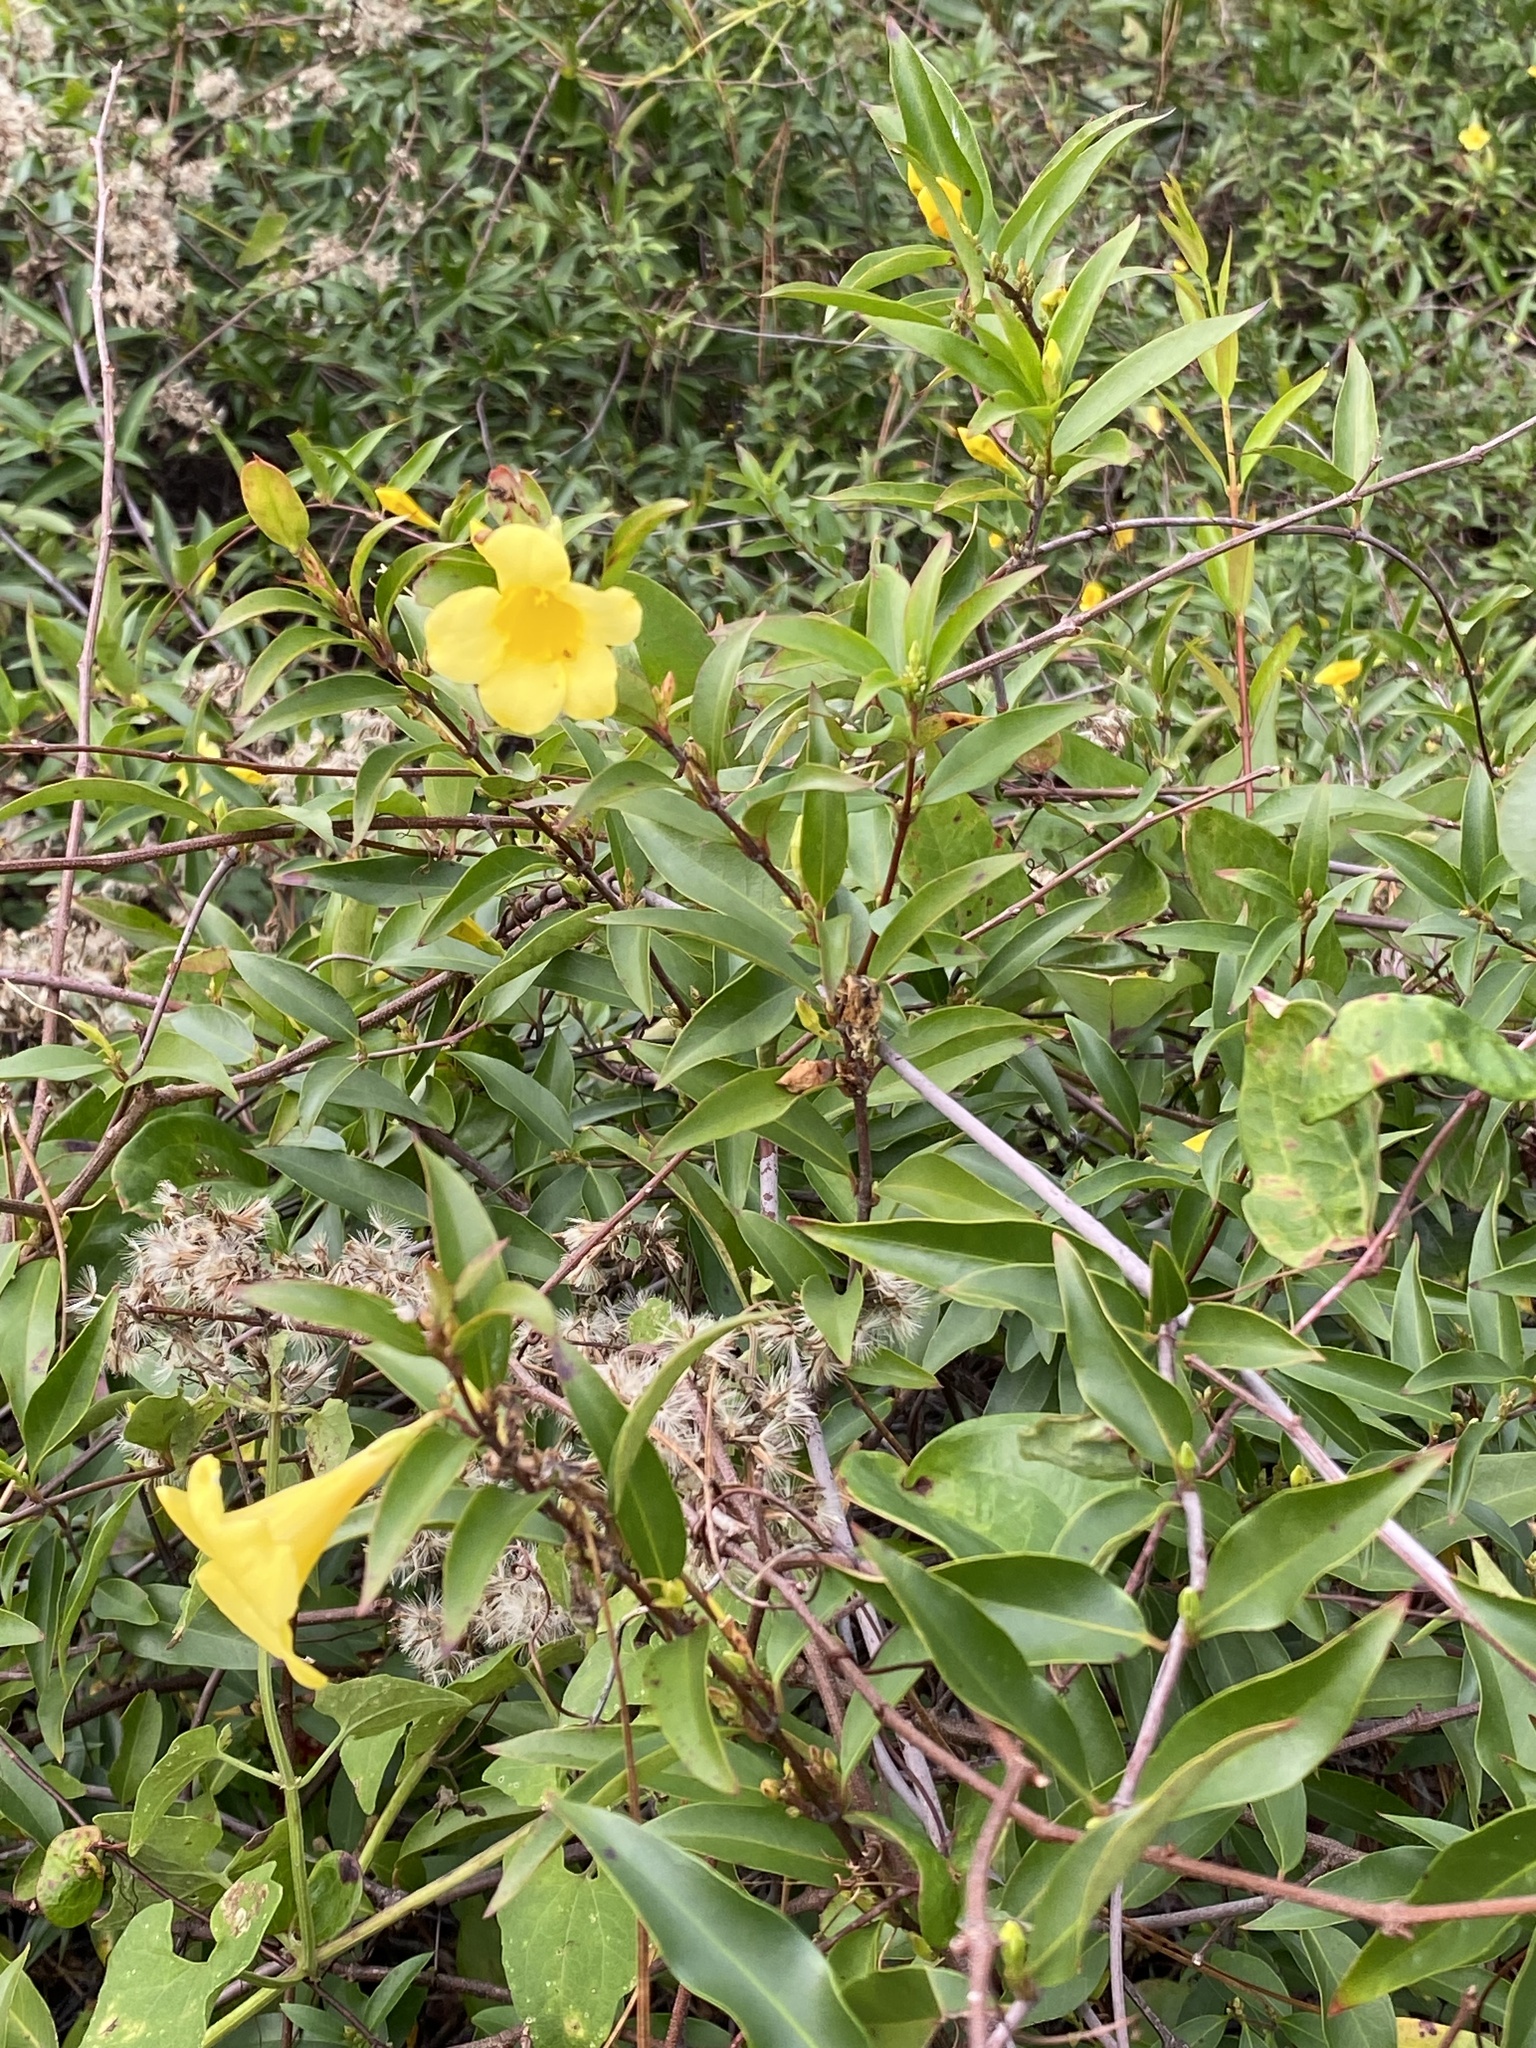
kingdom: Plantae
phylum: Tracheophyta
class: Magnoliopsida
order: Gentianales
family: Gelsemiaceae
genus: Gelsemium
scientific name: Gelsemium sempervirens
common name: Carolina-jasmine
